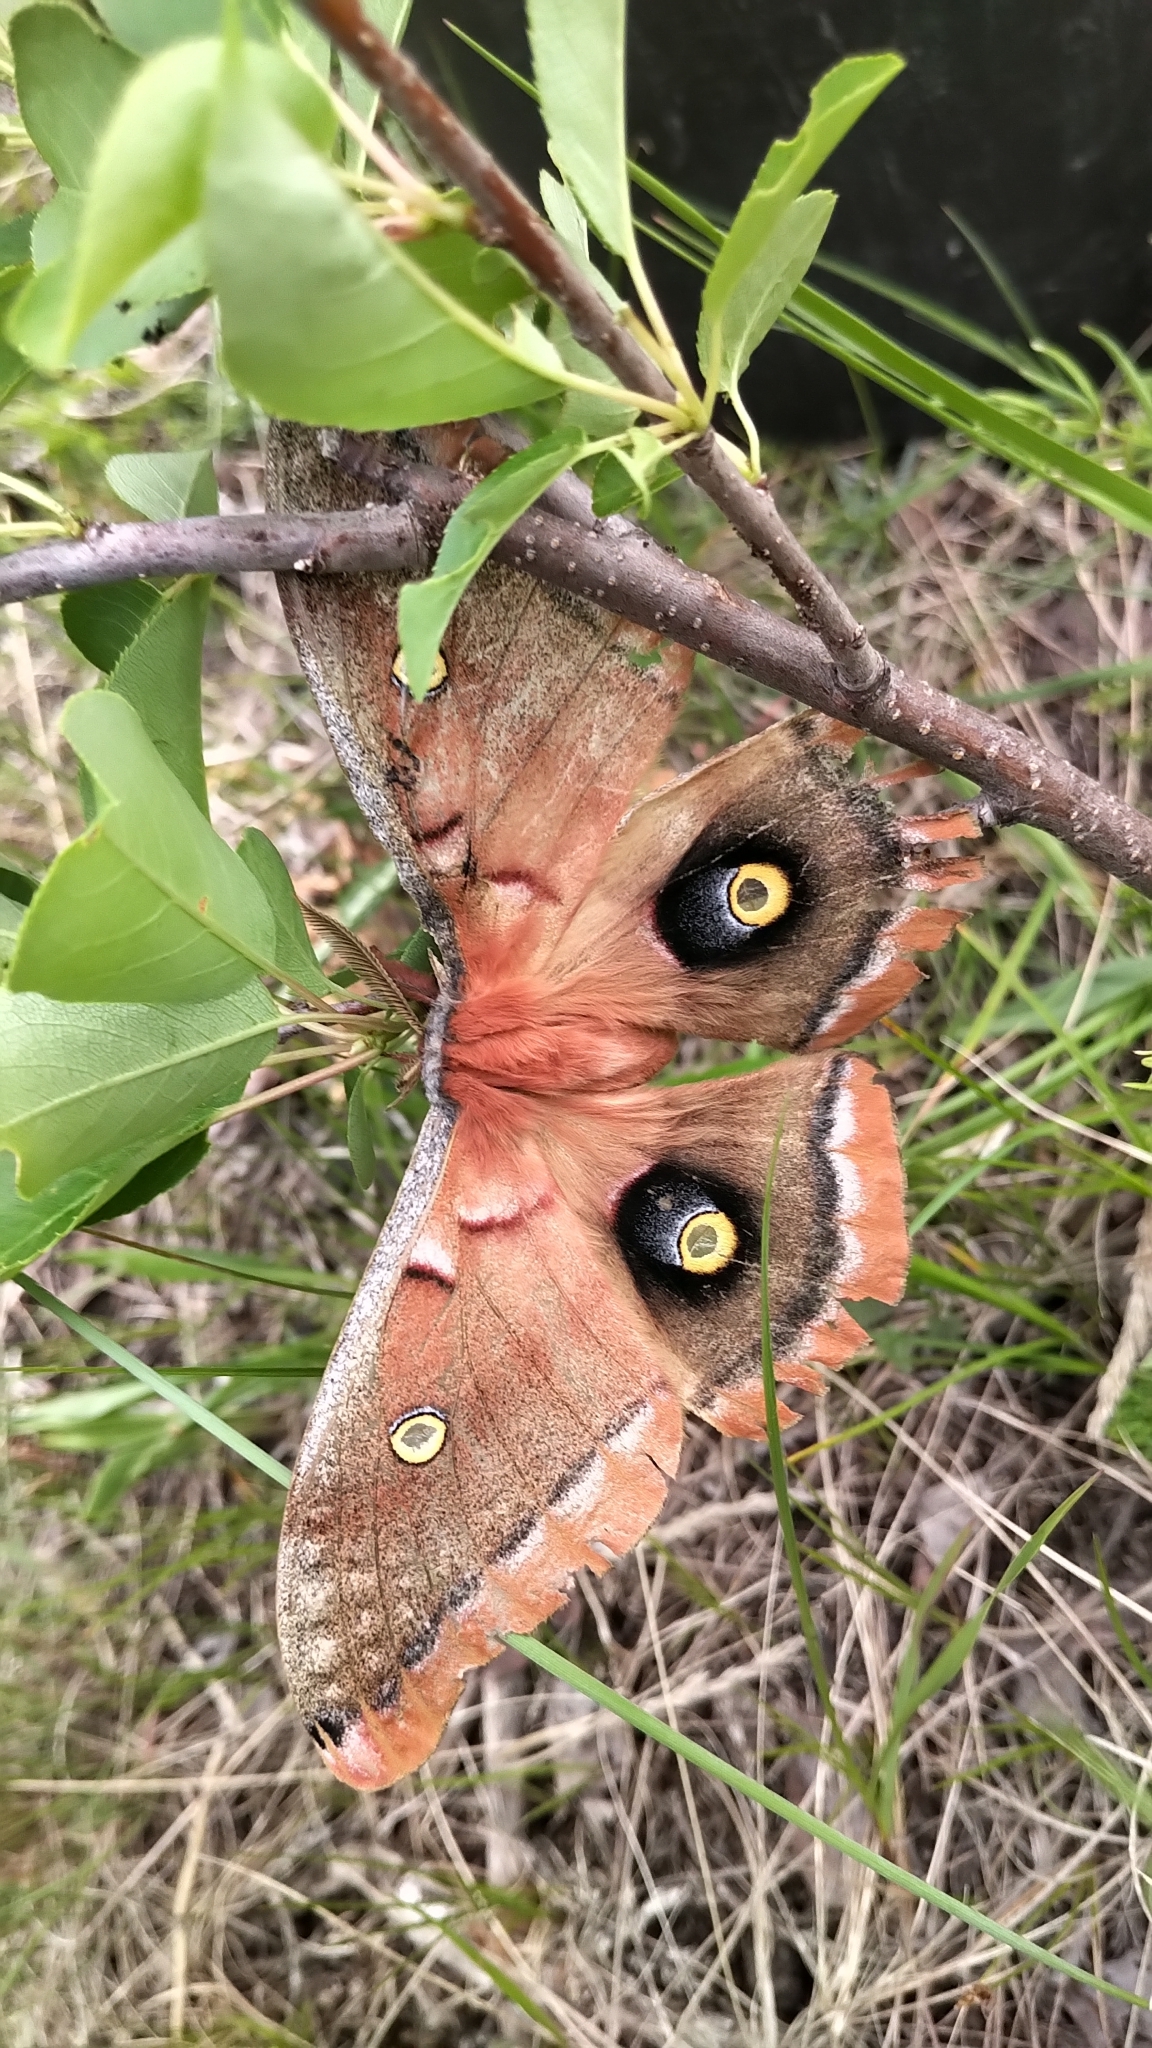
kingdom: Animalia
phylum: Arthropoda
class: Insecta
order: Lepidoptera
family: Saturniidae
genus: Antheraea
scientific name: Antheraea polyphemus
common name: Polyphemus moth
